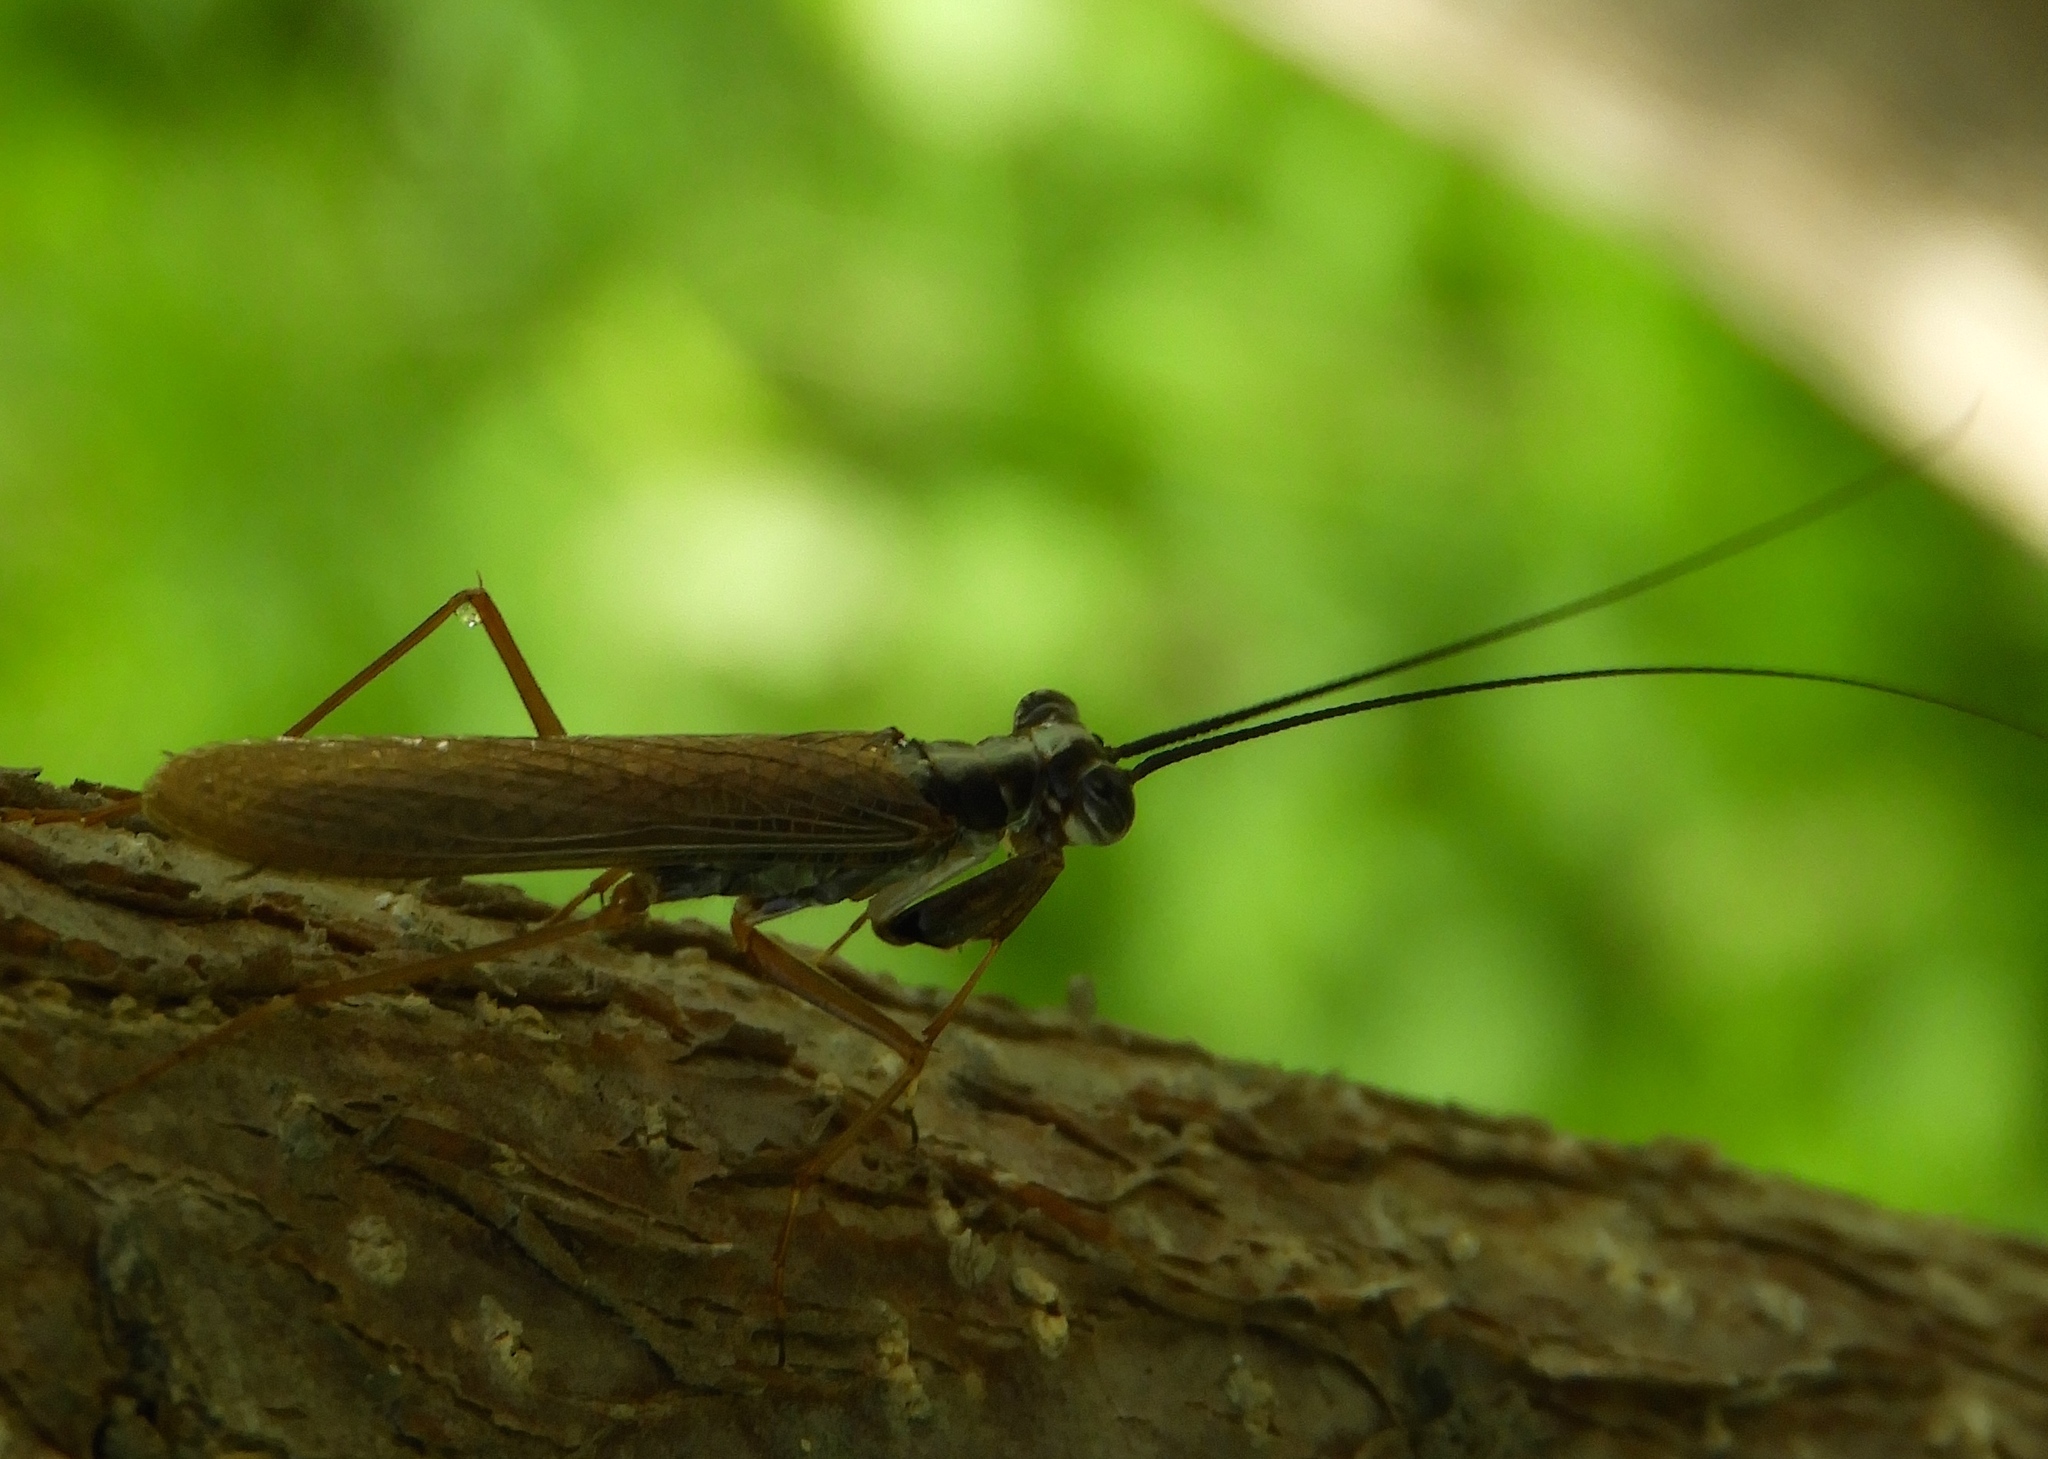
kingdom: Animalia
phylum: Arthropoda
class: Insecta
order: Mantodea
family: Mantoididae
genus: Mantoida
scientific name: Mantoida maya
